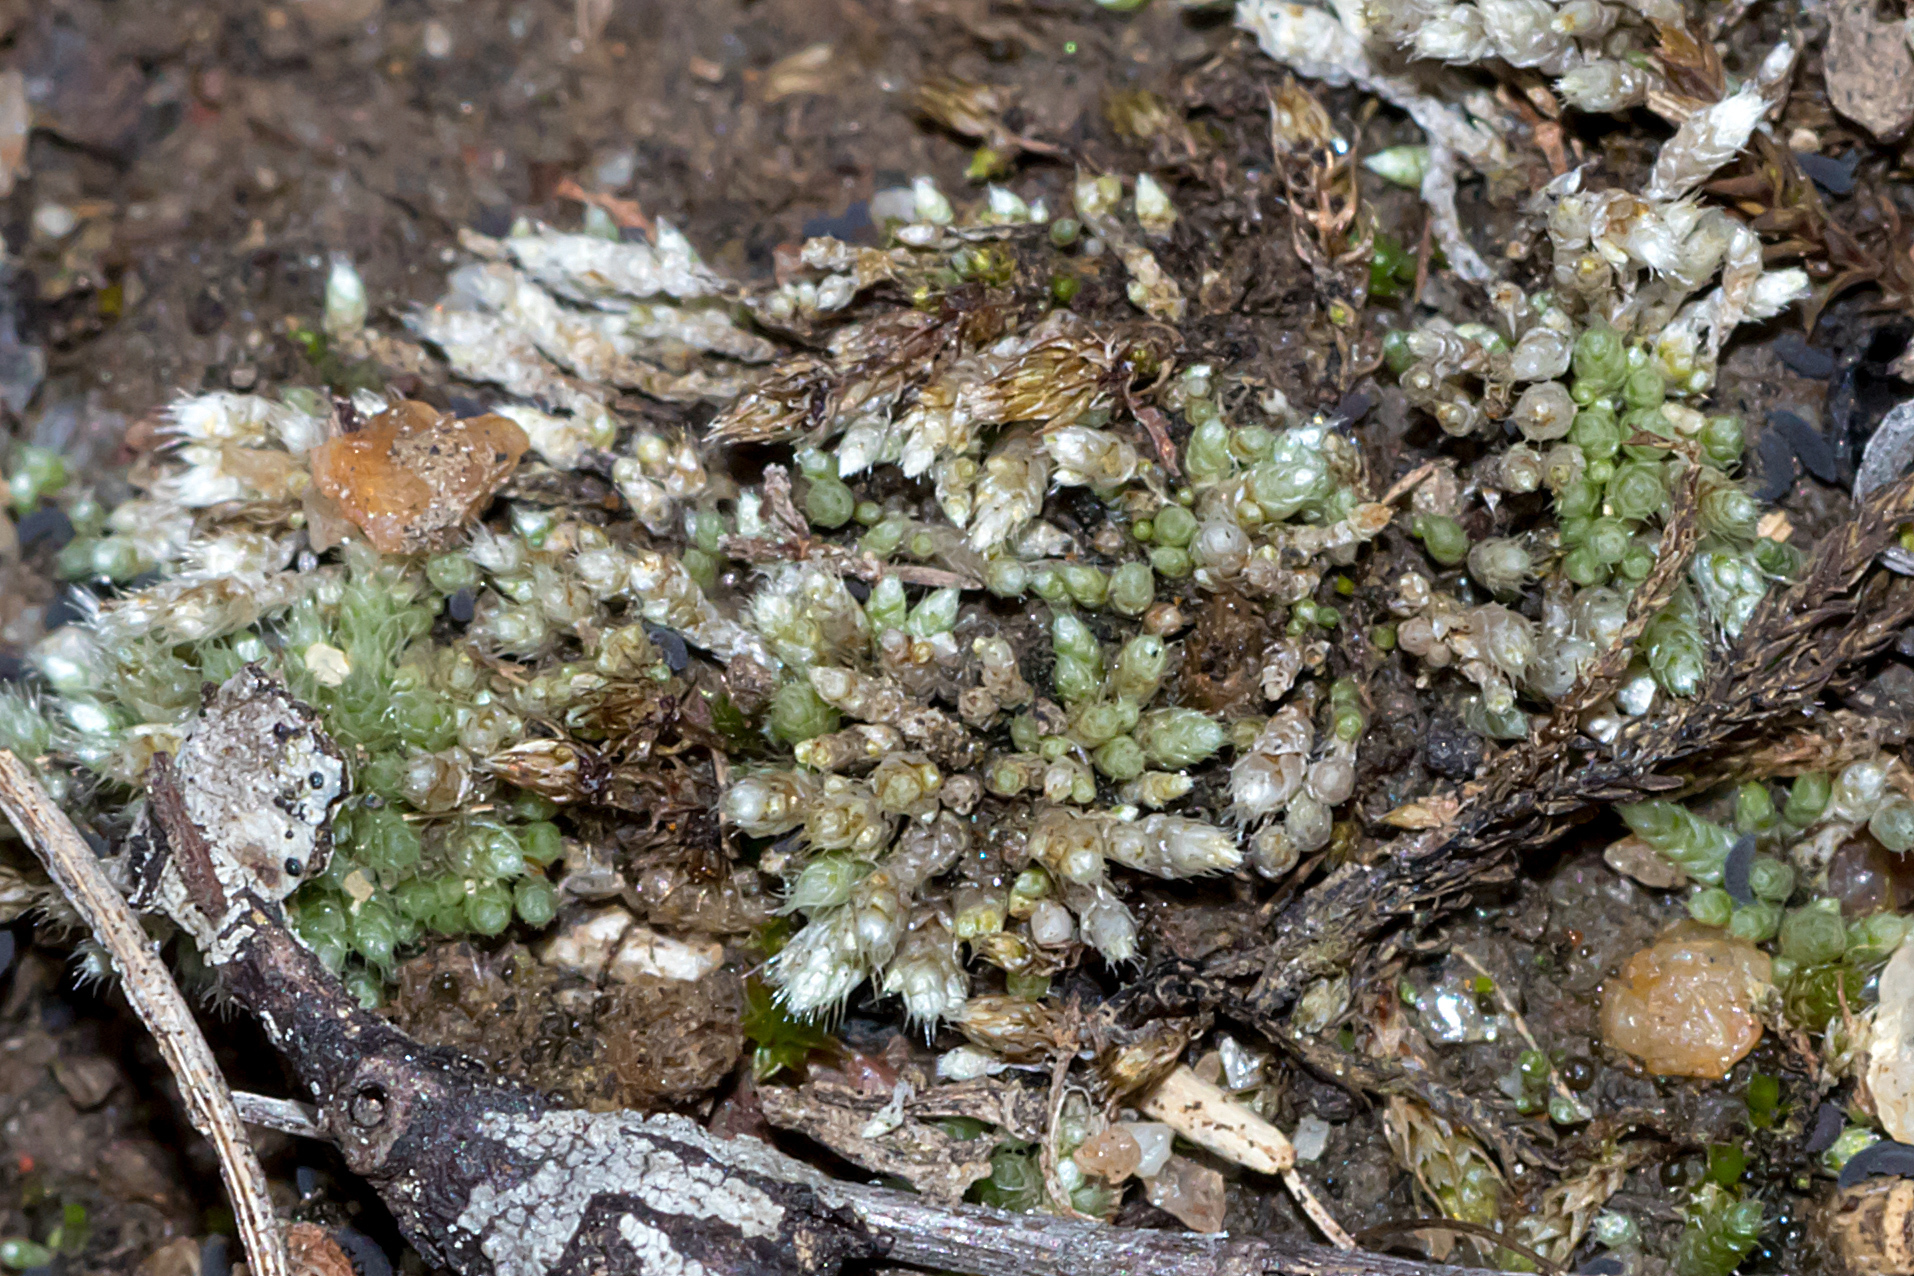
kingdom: Plantae
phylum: Bryophyta
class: Bryopsida
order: Bryales
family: Bryaceae
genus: Bryum
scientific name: Bryum argenteum
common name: Silver-moss
